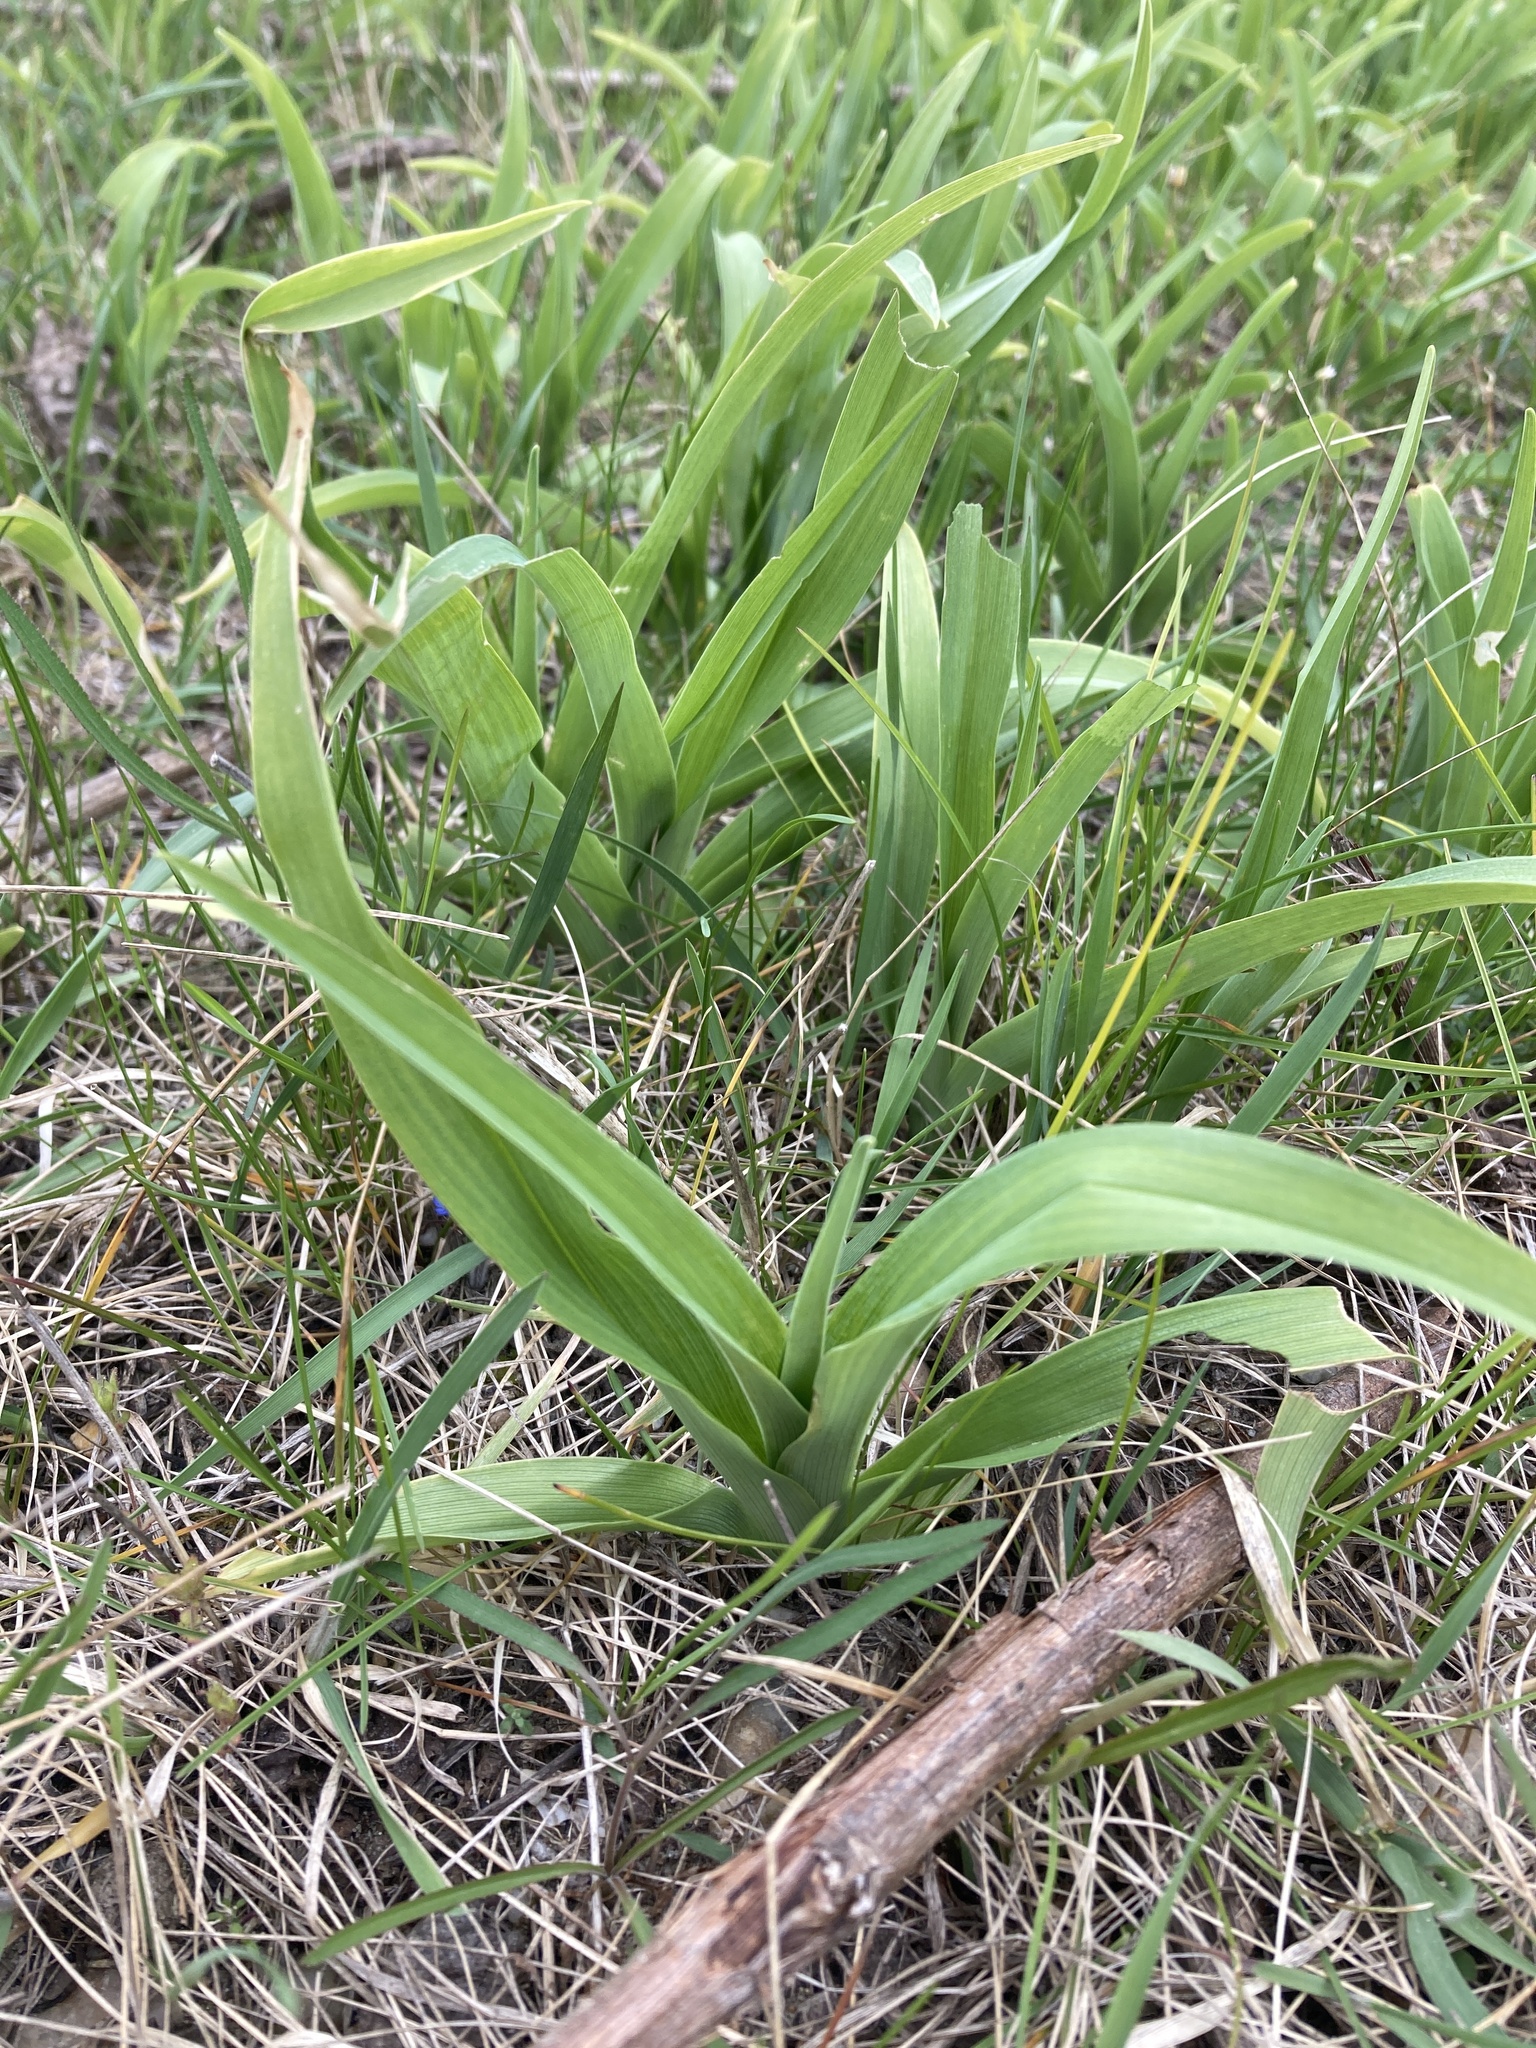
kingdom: Plantae
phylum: Tracheophyta
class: Liliopsida
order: Asparagales
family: Asphodelaceae
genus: Hemerocallis
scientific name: Hemerocallis fulva
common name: Orange day-lily
